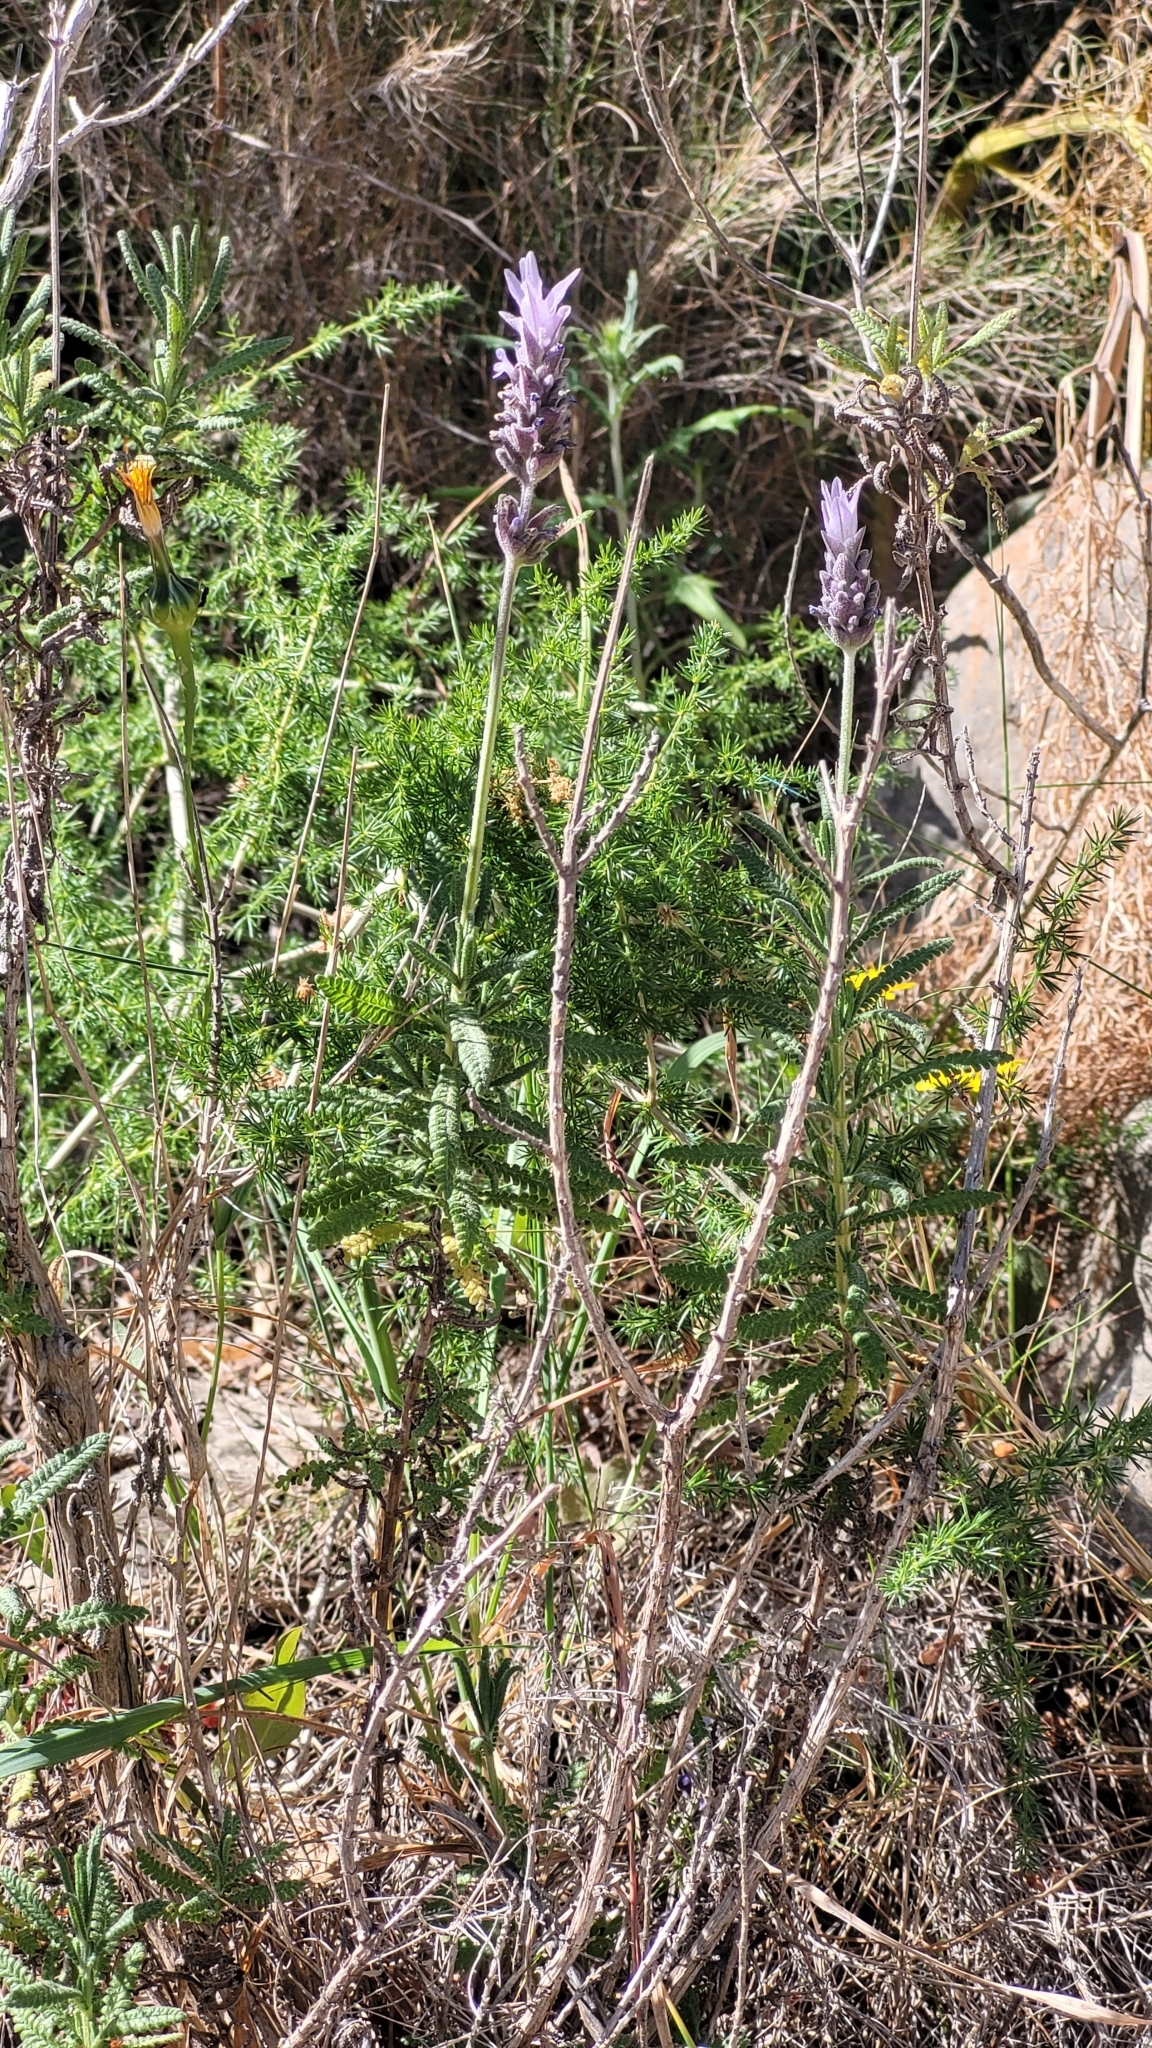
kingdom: Plantae
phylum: Tracheophyta
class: Magnoliopsida
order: Lamiales
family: Lamiaceae
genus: Lavandula
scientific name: Lavandula dentata
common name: French lavender
